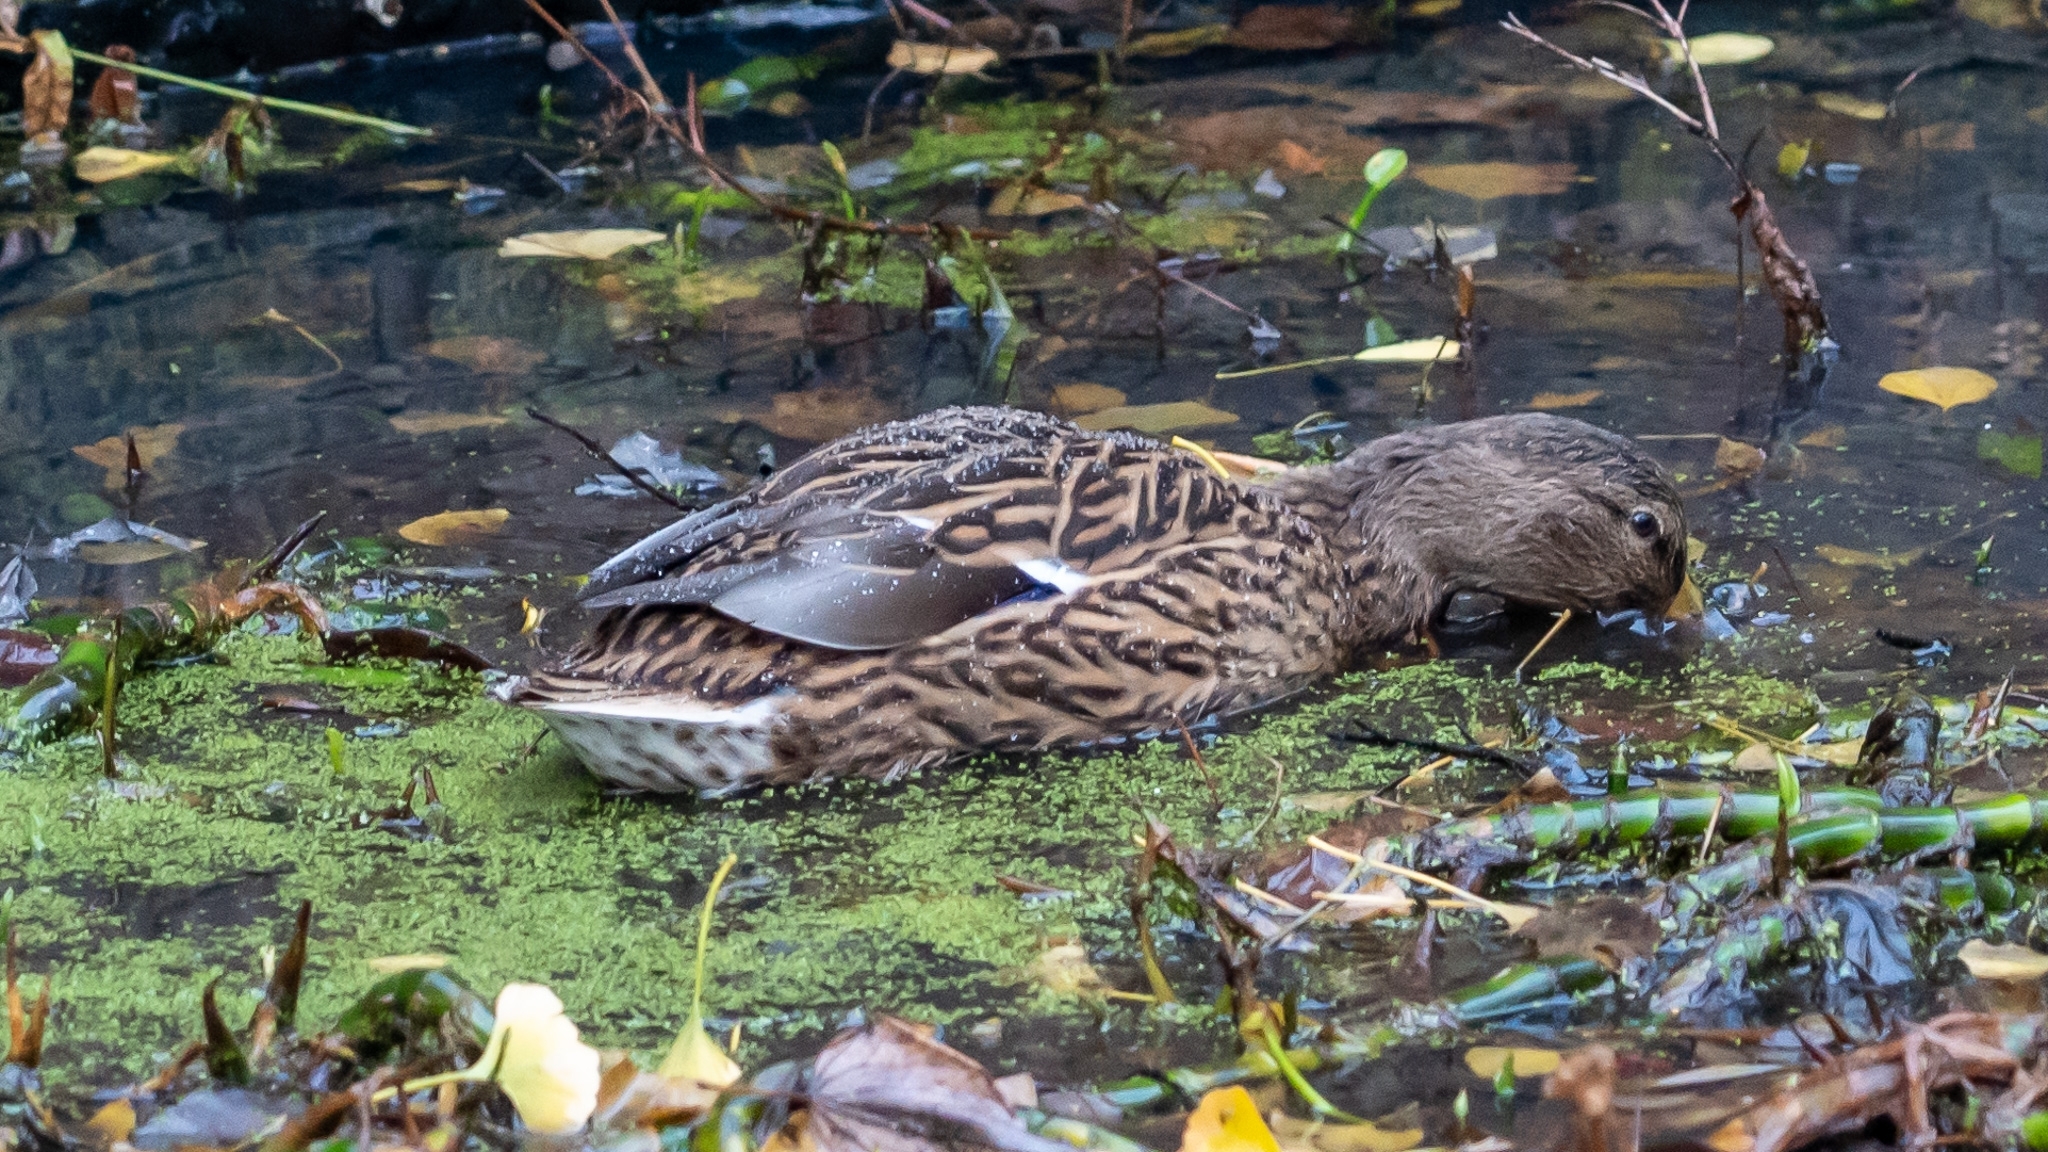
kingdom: Animalia
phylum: Chordata
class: Aves
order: Anseriformes
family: Anatidae
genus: Anas
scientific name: Anas platyrhynchos
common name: Mallard
